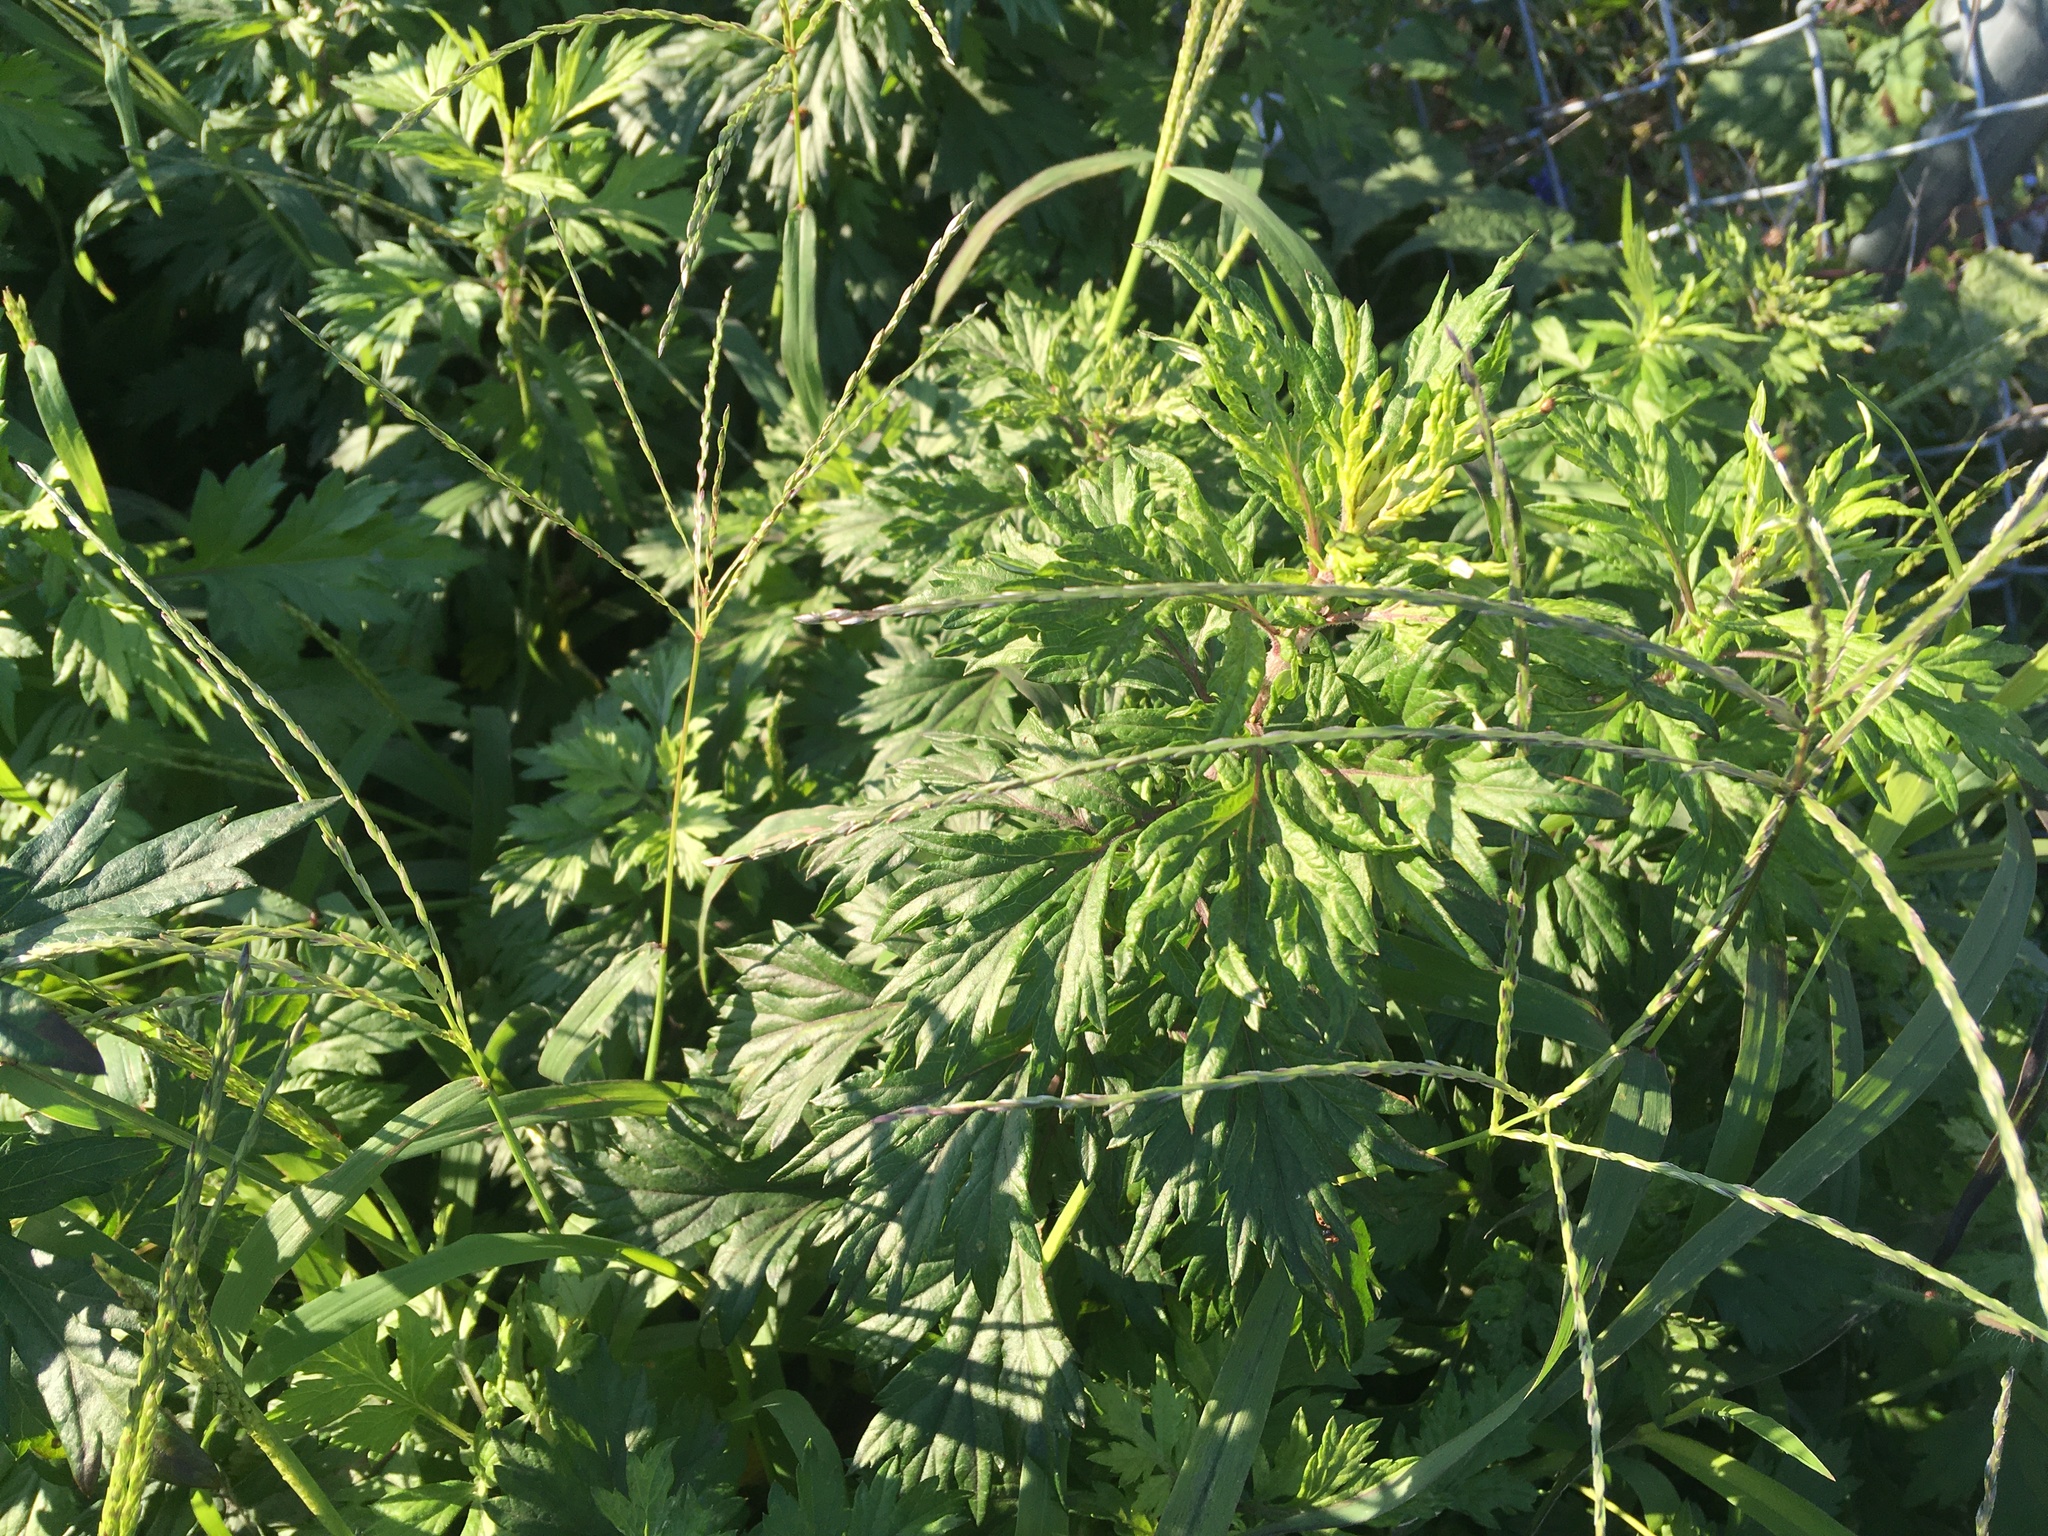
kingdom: Plantae
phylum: Tracheophyta
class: Magnoliopsida
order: Asterales
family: Asteraceae
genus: Artemisia
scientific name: Artemisia vulgaris
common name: Mugwort
